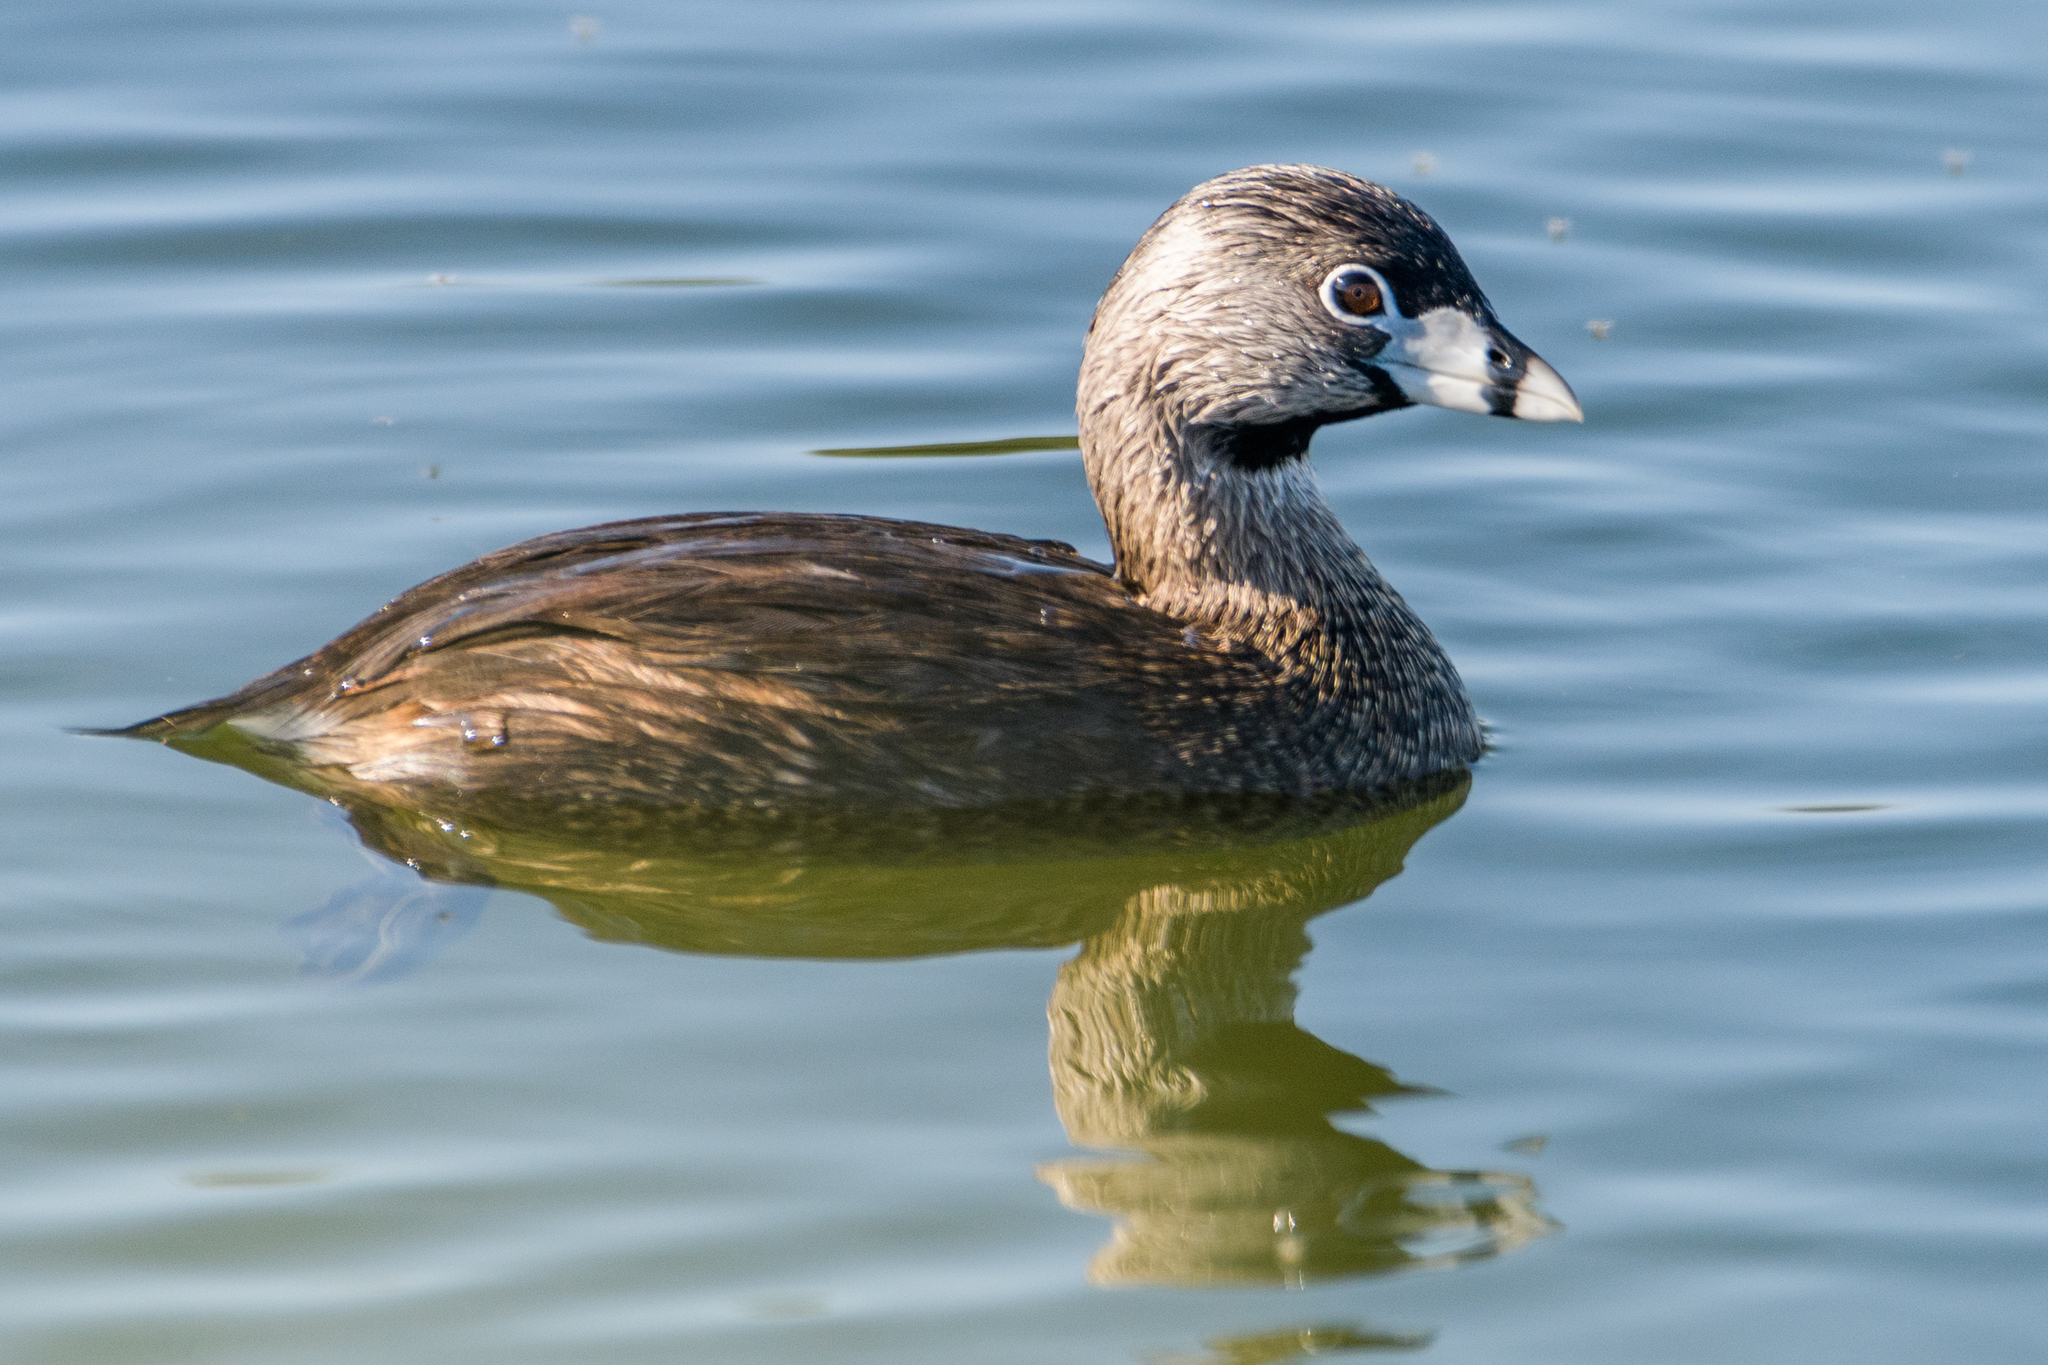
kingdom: Animalia
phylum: Chordata
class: Aves
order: Podicipediformes
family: Podicipedidae
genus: Podilymbus
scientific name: Podilymbus podiceps
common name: Pied-billed grebe
